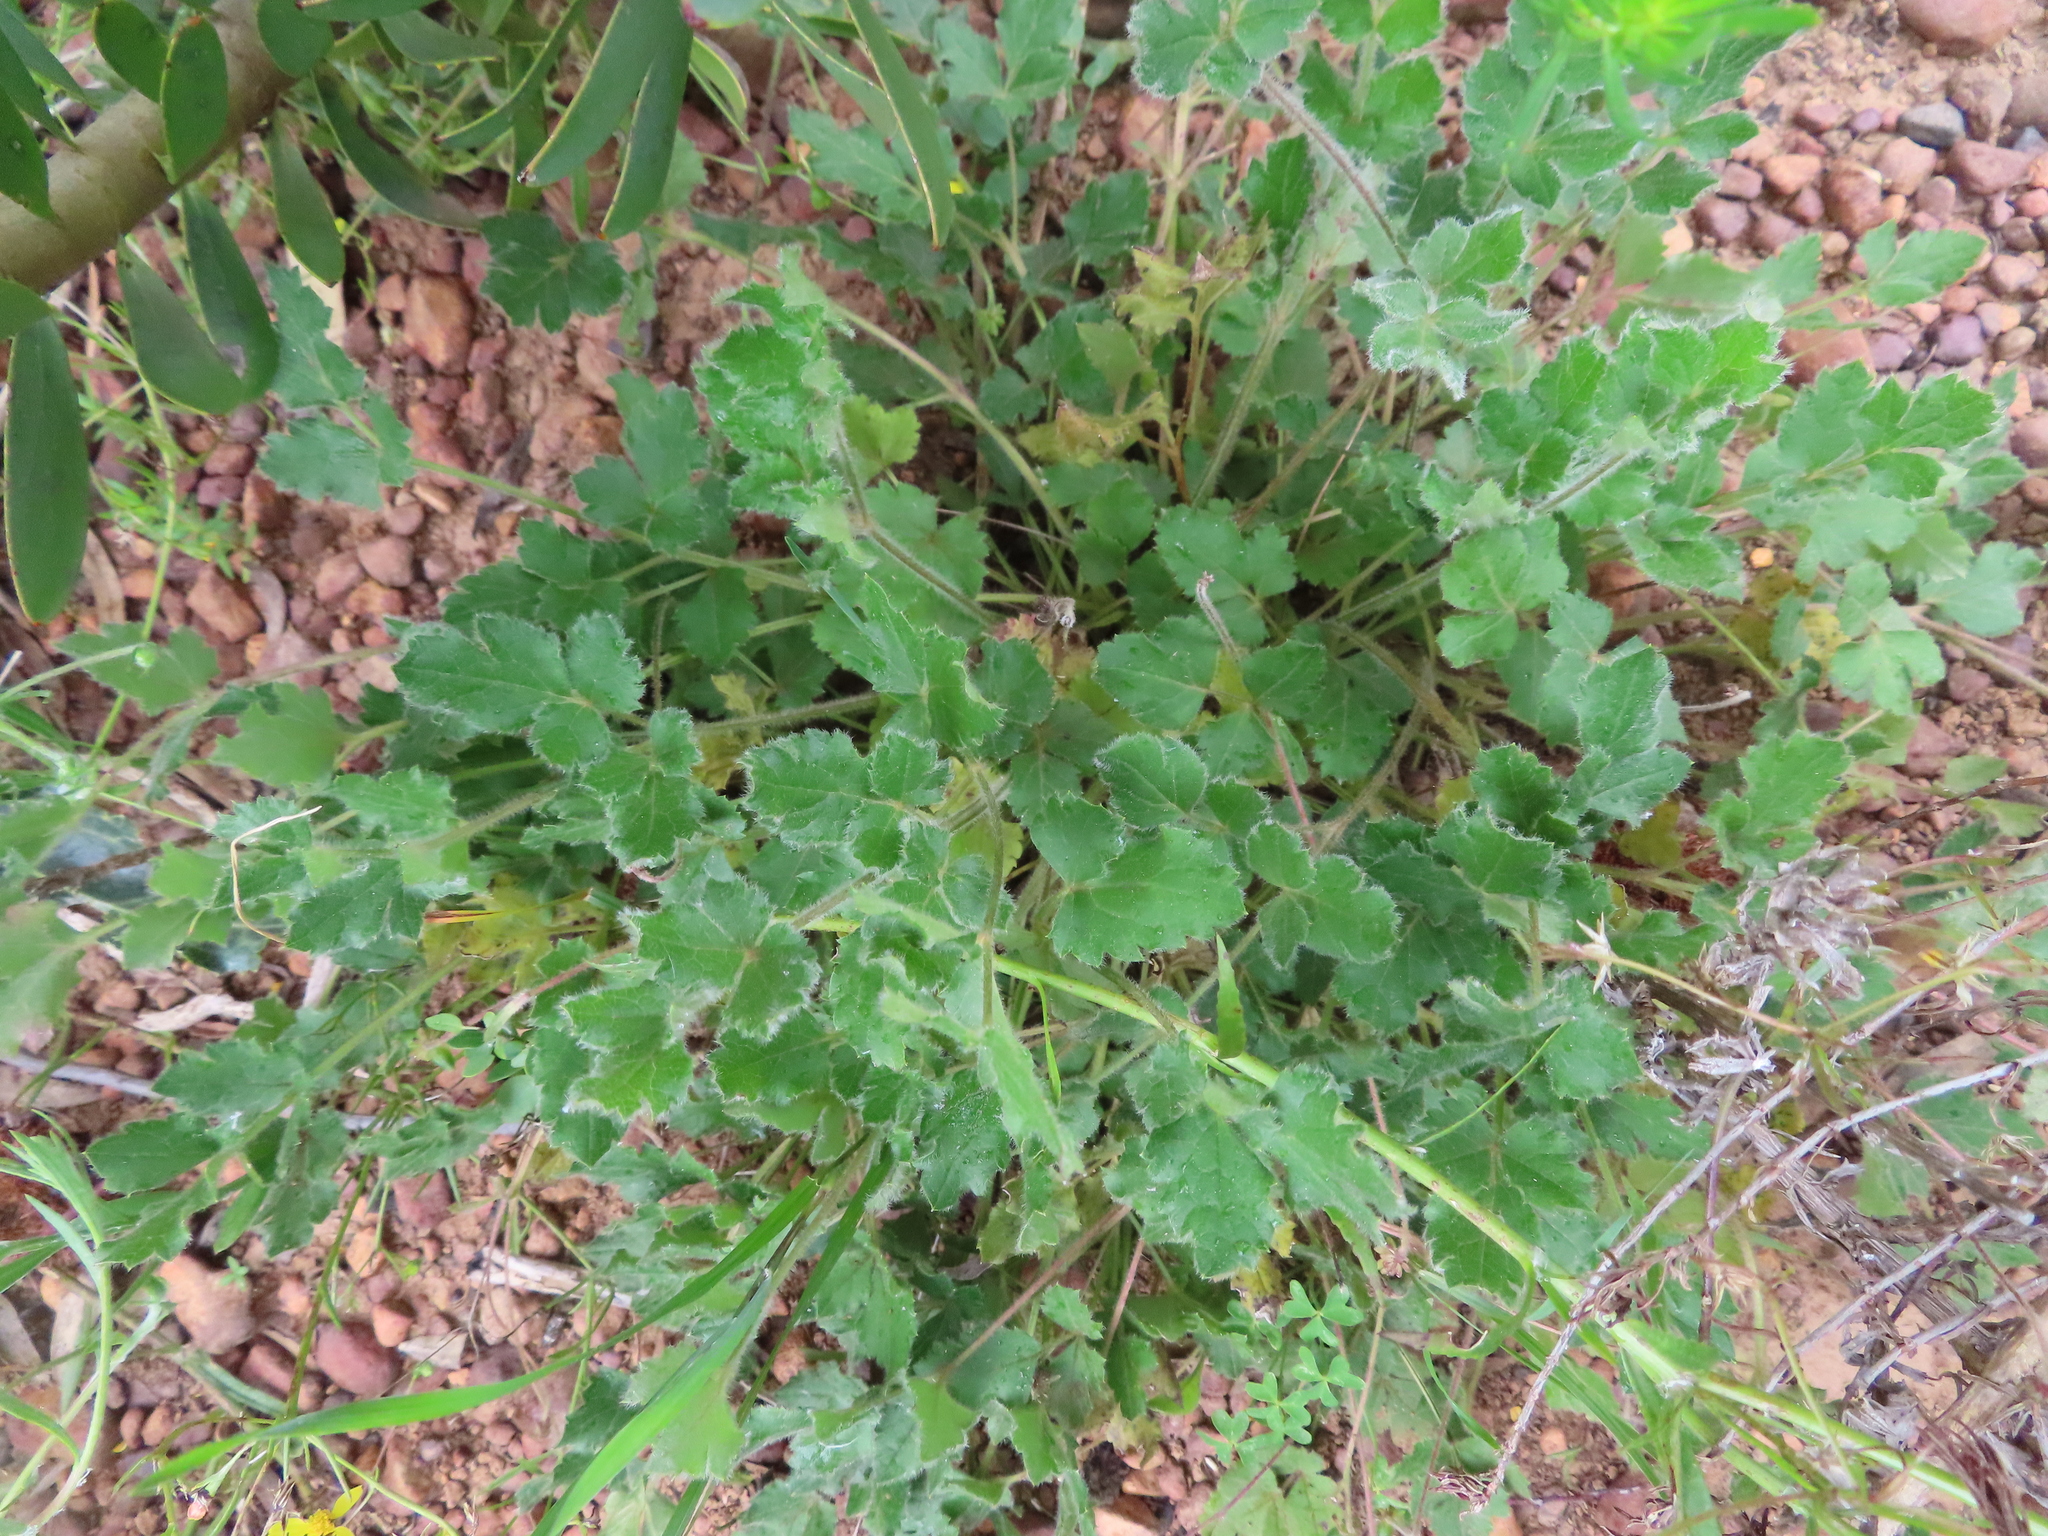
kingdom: Plantae
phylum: Tracheophyta
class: Magnoliopsida
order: Ranunculales
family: Ranunculaceae
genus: Knowltonia
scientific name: Knowltonia capensis
